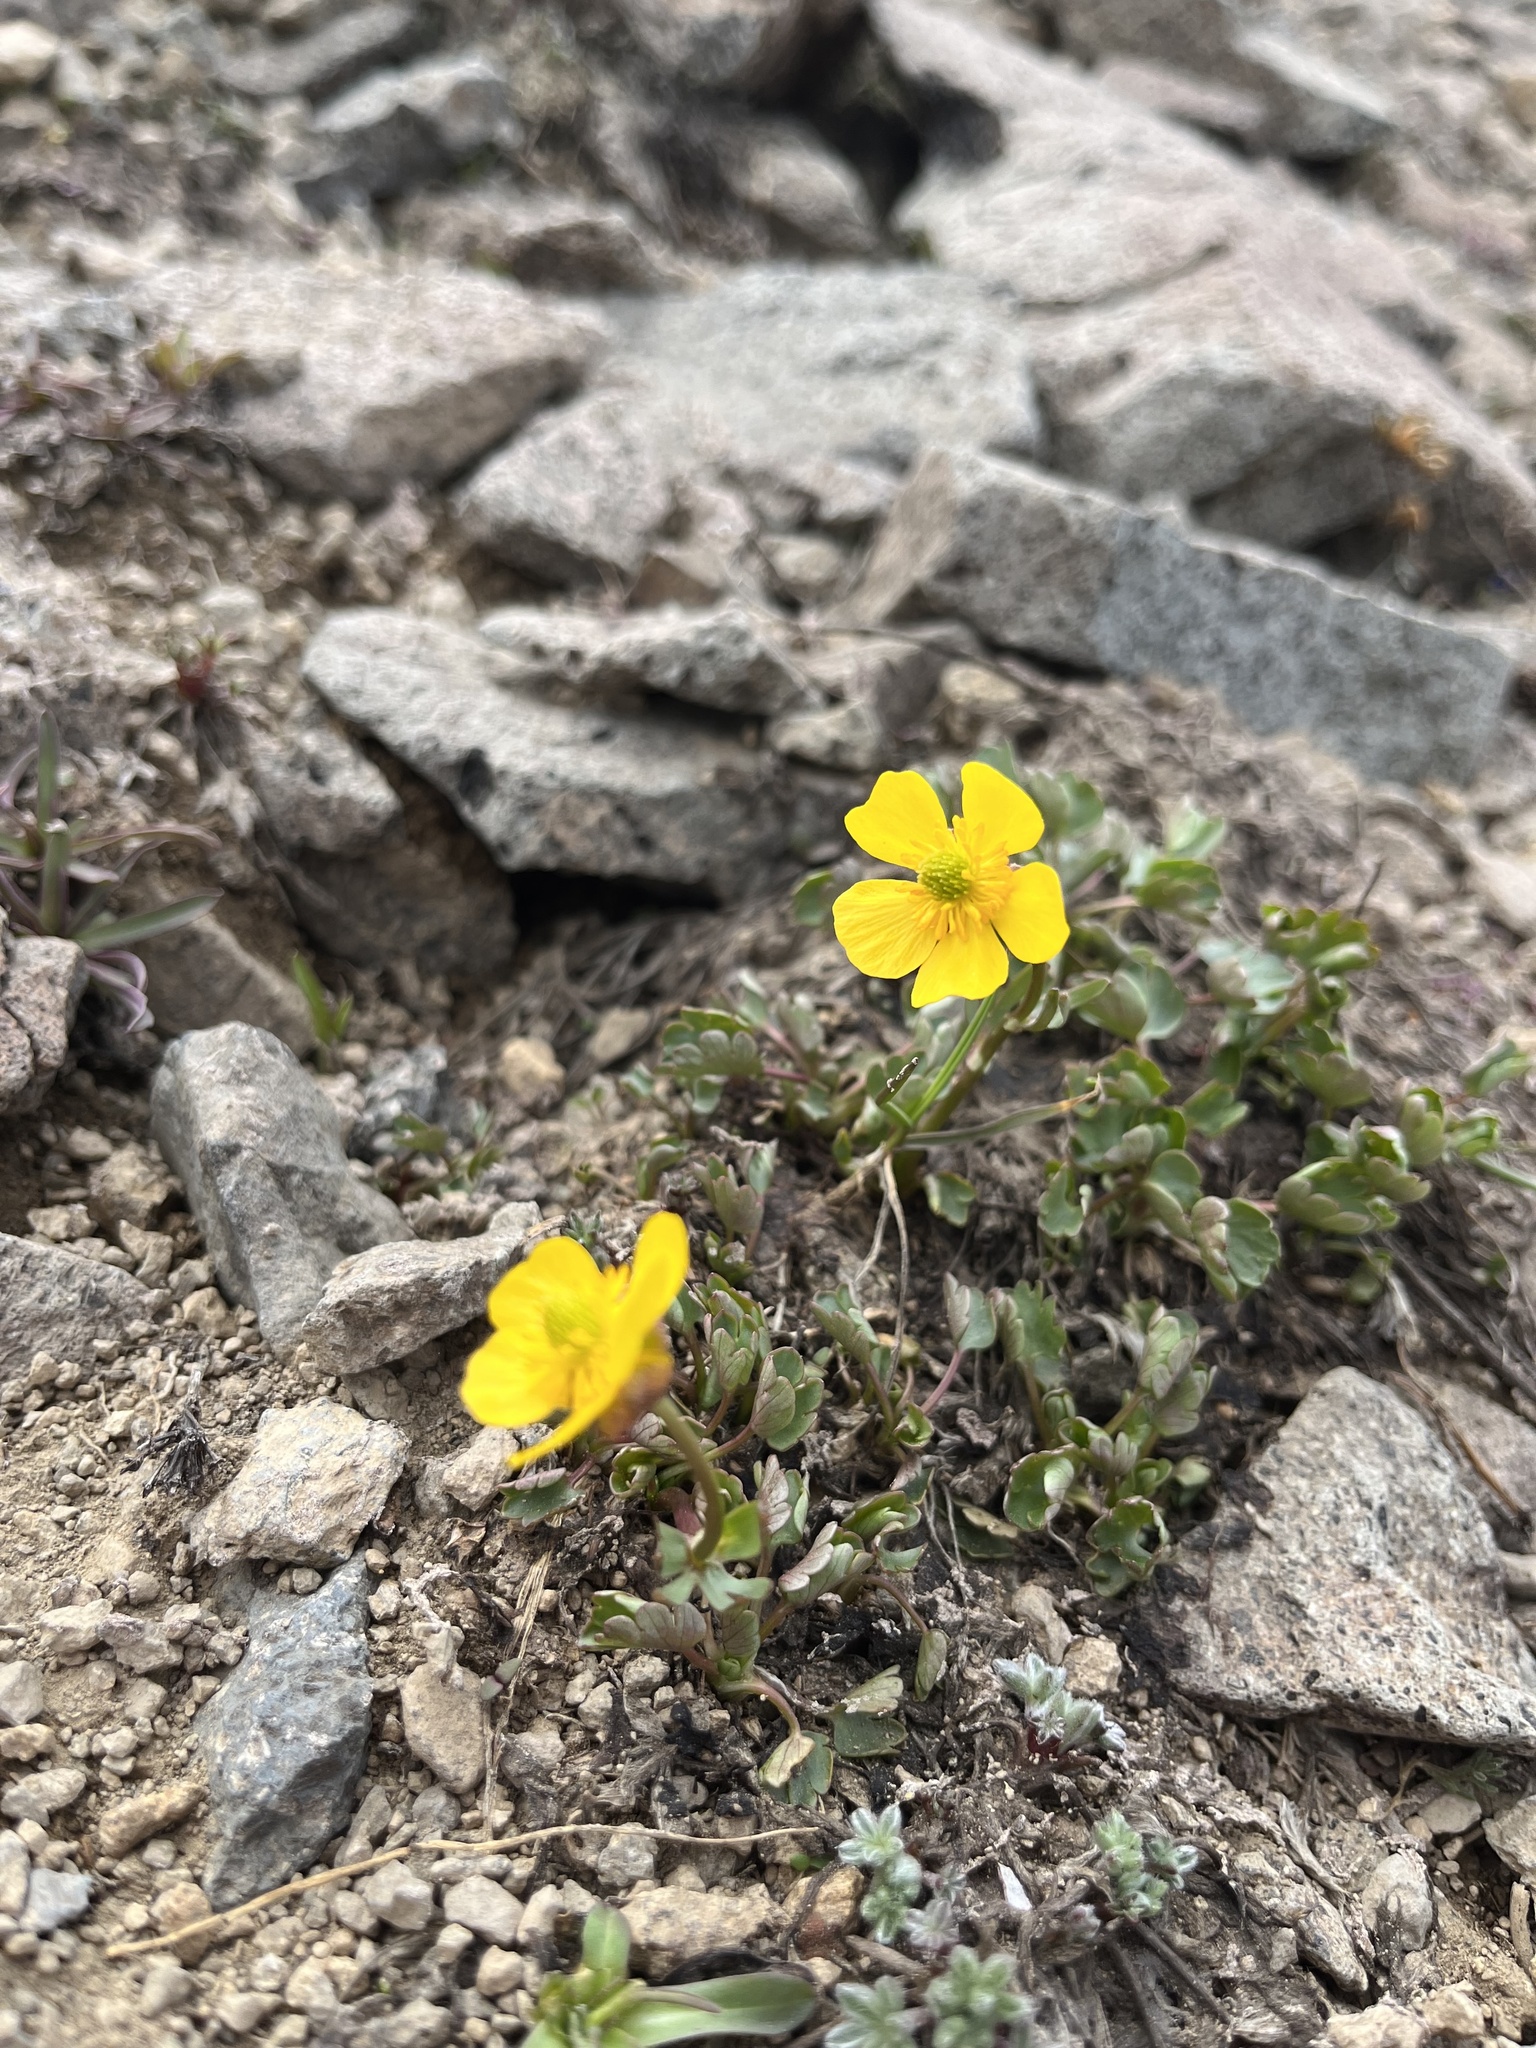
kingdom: Plantae
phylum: Tracheophyta
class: Magnoliopsida
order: Ranunculales
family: Ranunculaceae
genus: Ranunculus
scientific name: Ranunculus eschscholtzii
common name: Eschscholtz's buttercup
